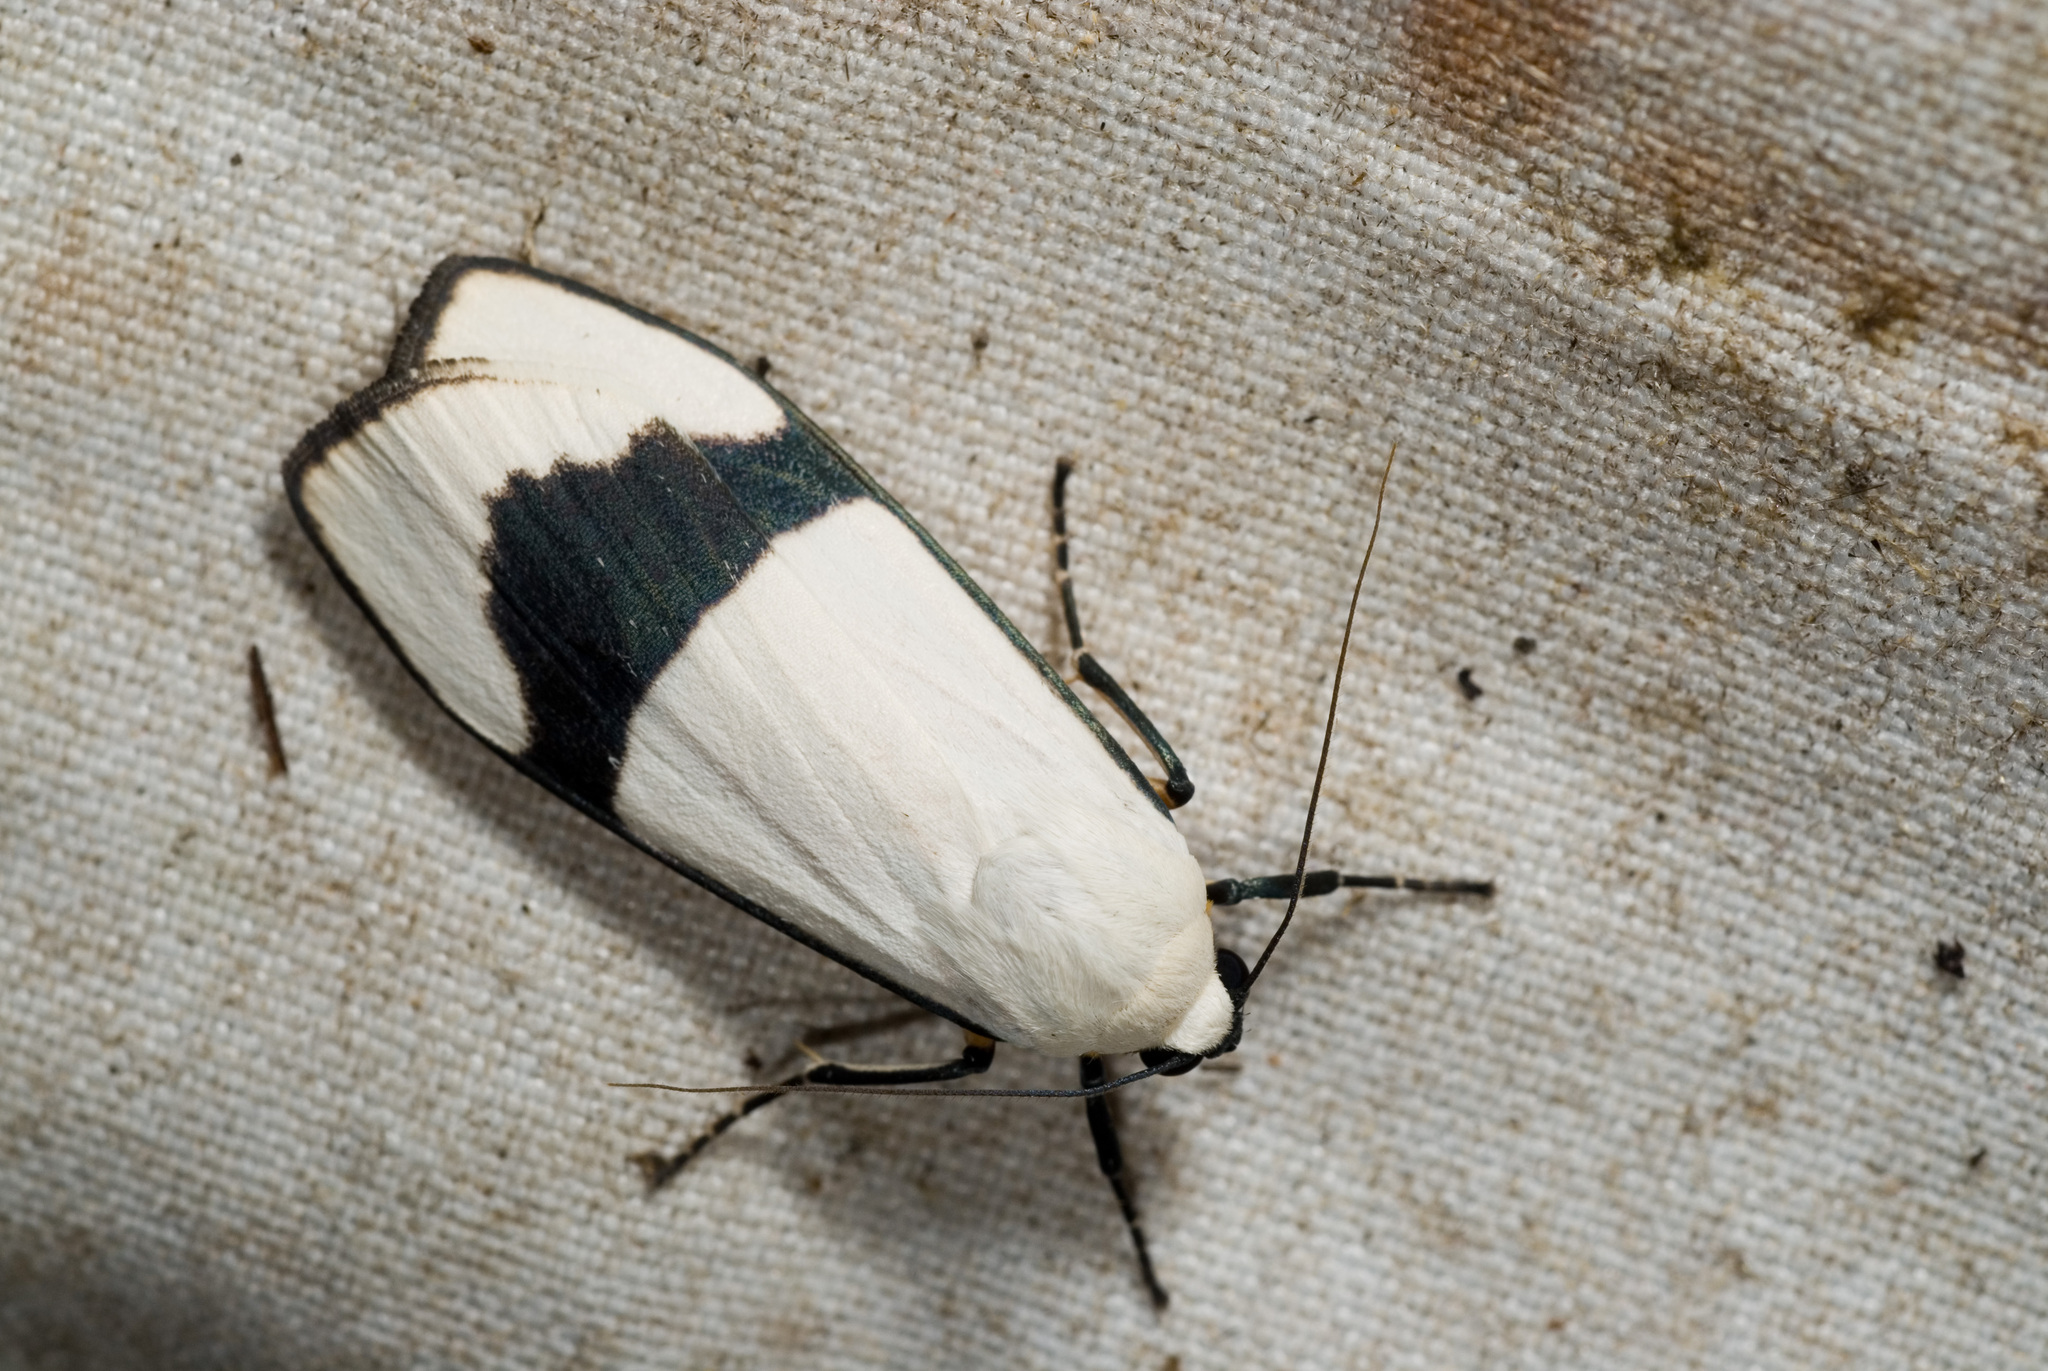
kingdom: Animalia
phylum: Arthropoda
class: Insecta
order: Lepidoptera
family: Erebidae
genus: Vamuna
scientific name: Vamuna alboluteola
